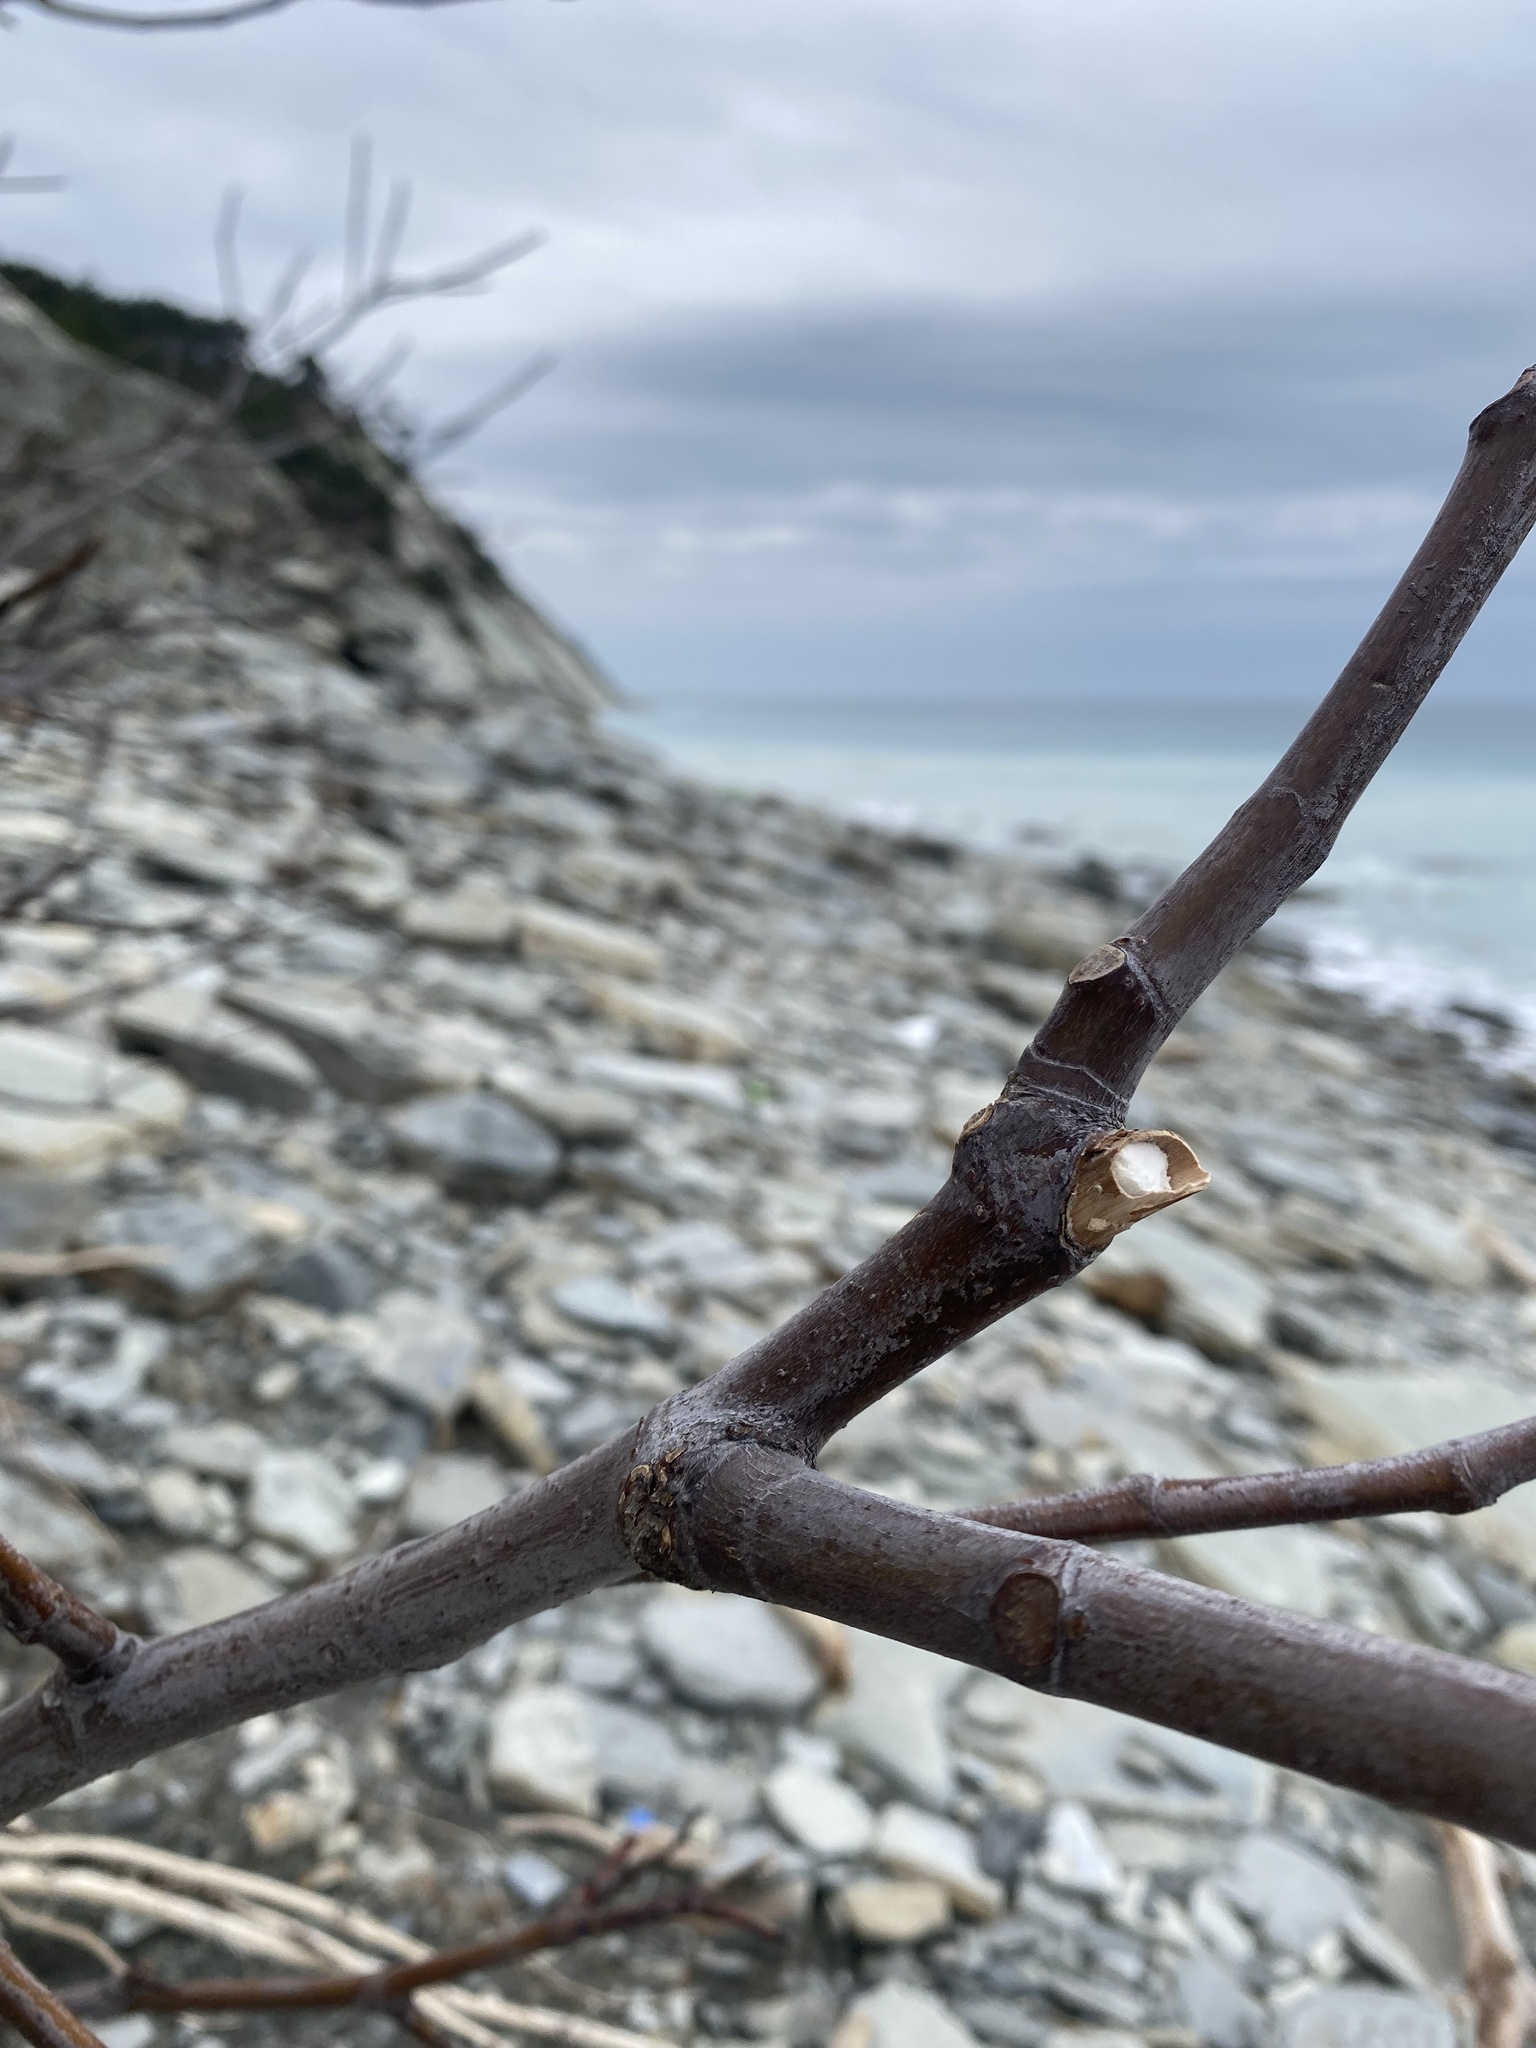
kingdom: Plantae
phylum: Tracheophyta
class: Magnoliopsida
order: Rosales
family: Moraceae
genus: Ficus
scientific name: Ficus carica
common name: Fig
